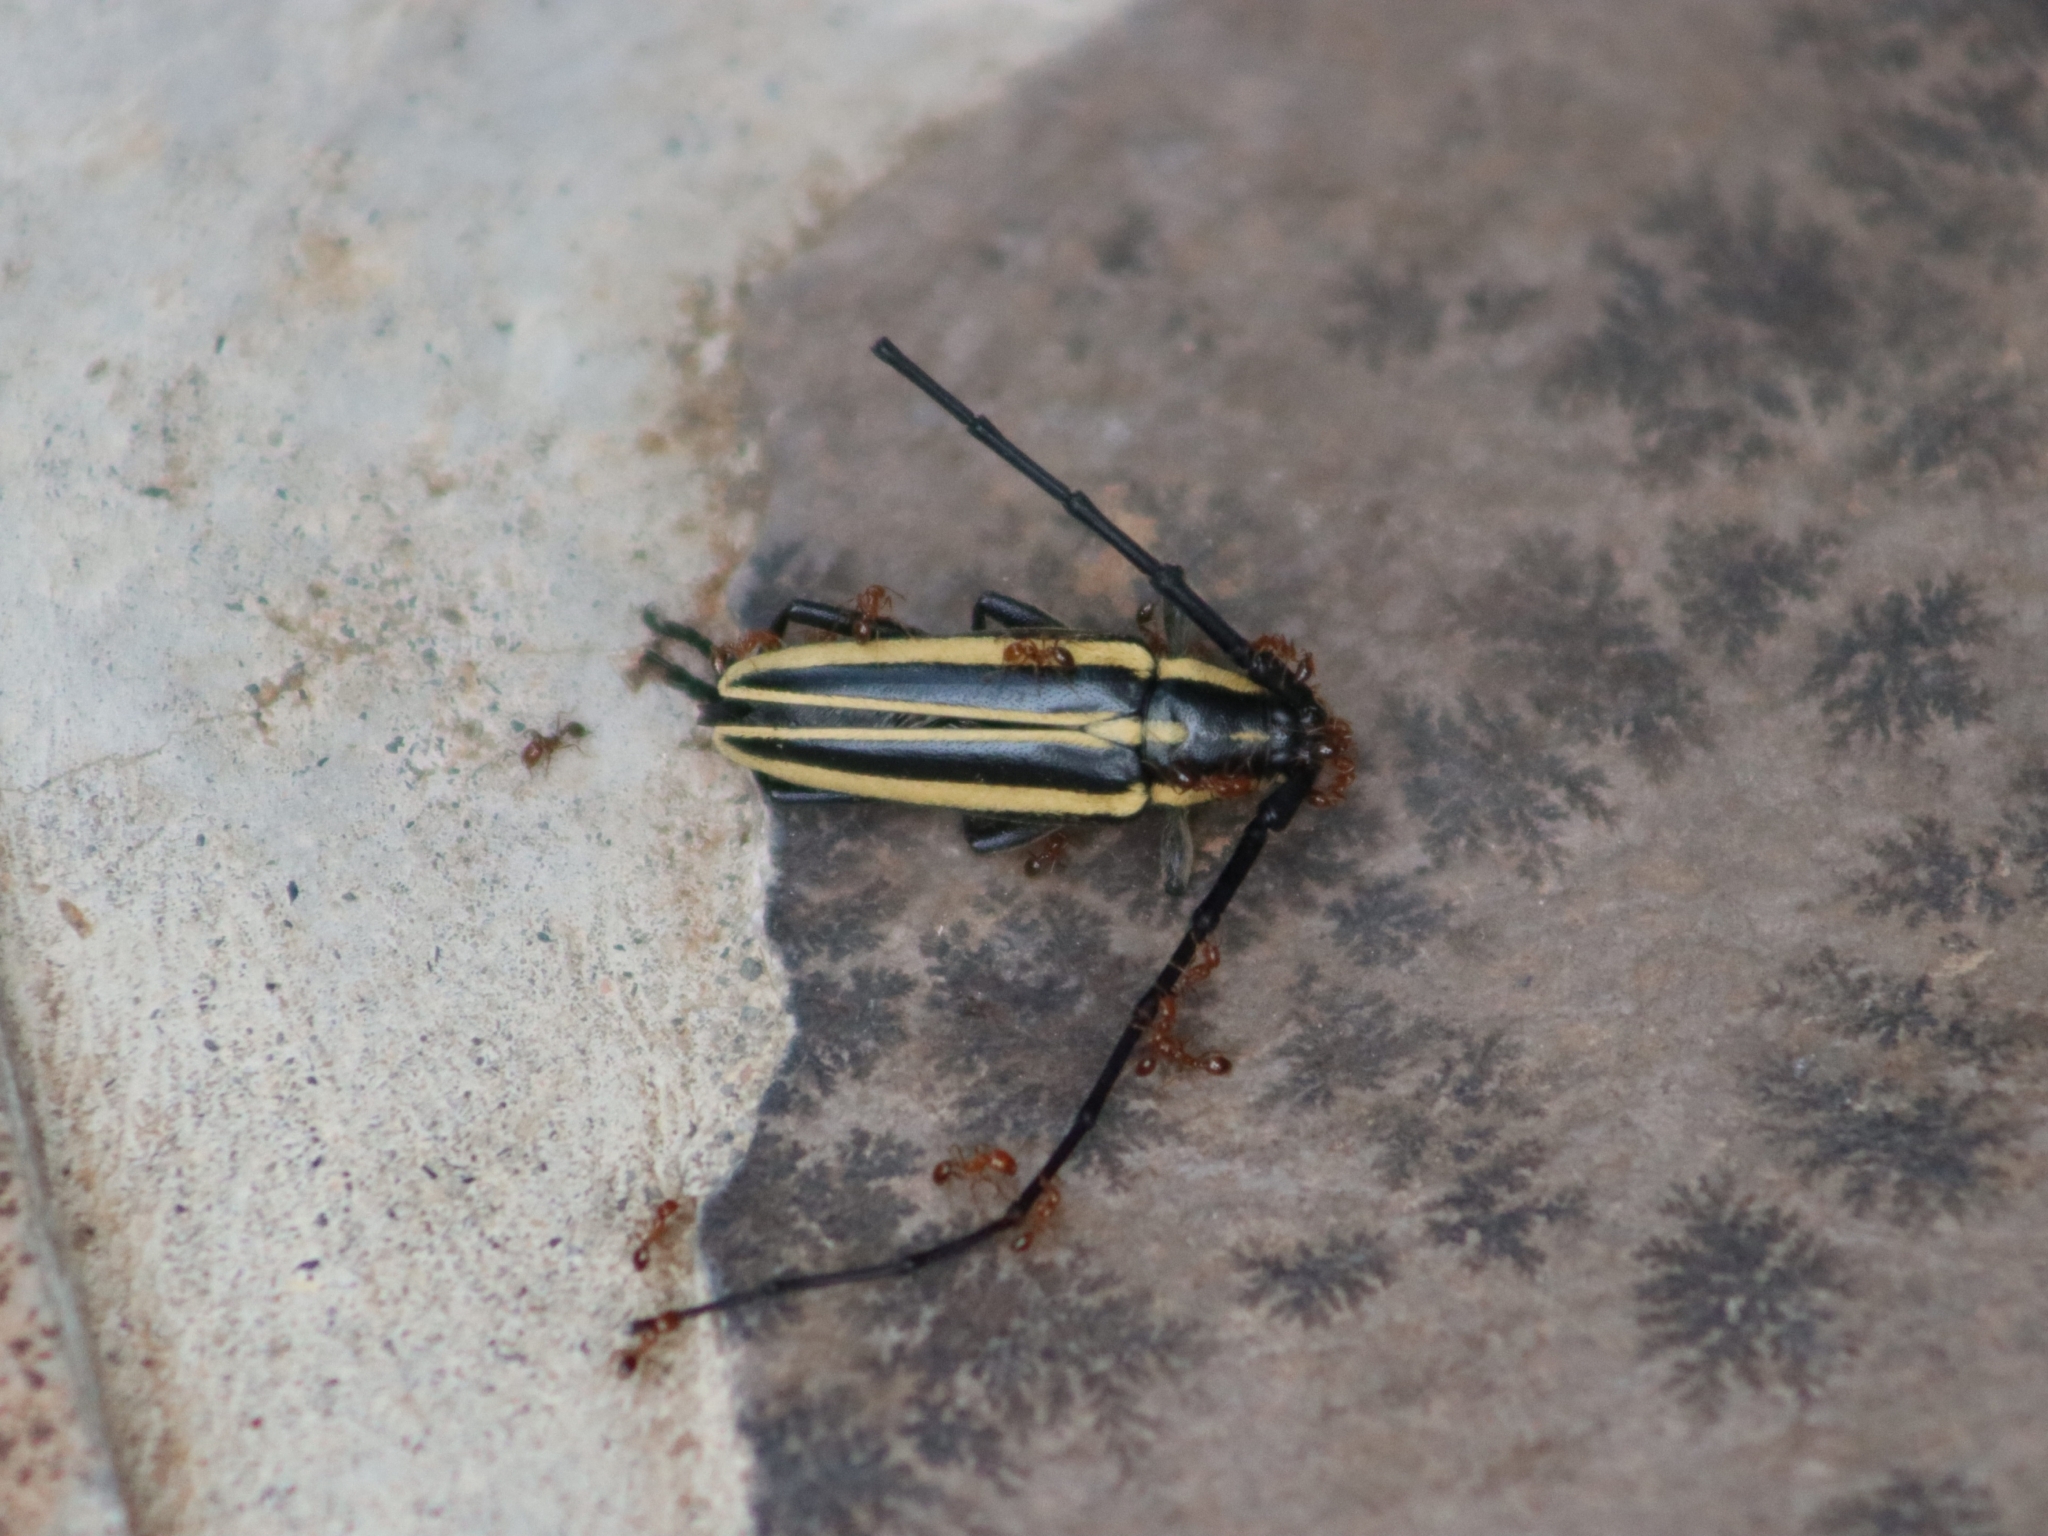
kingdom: Animalia
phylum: Arthropoda
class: Insecta
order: Coleoptera
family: Cerambycidae
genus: Sphaenothecus
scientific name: Sphaenothecus trilineatus
